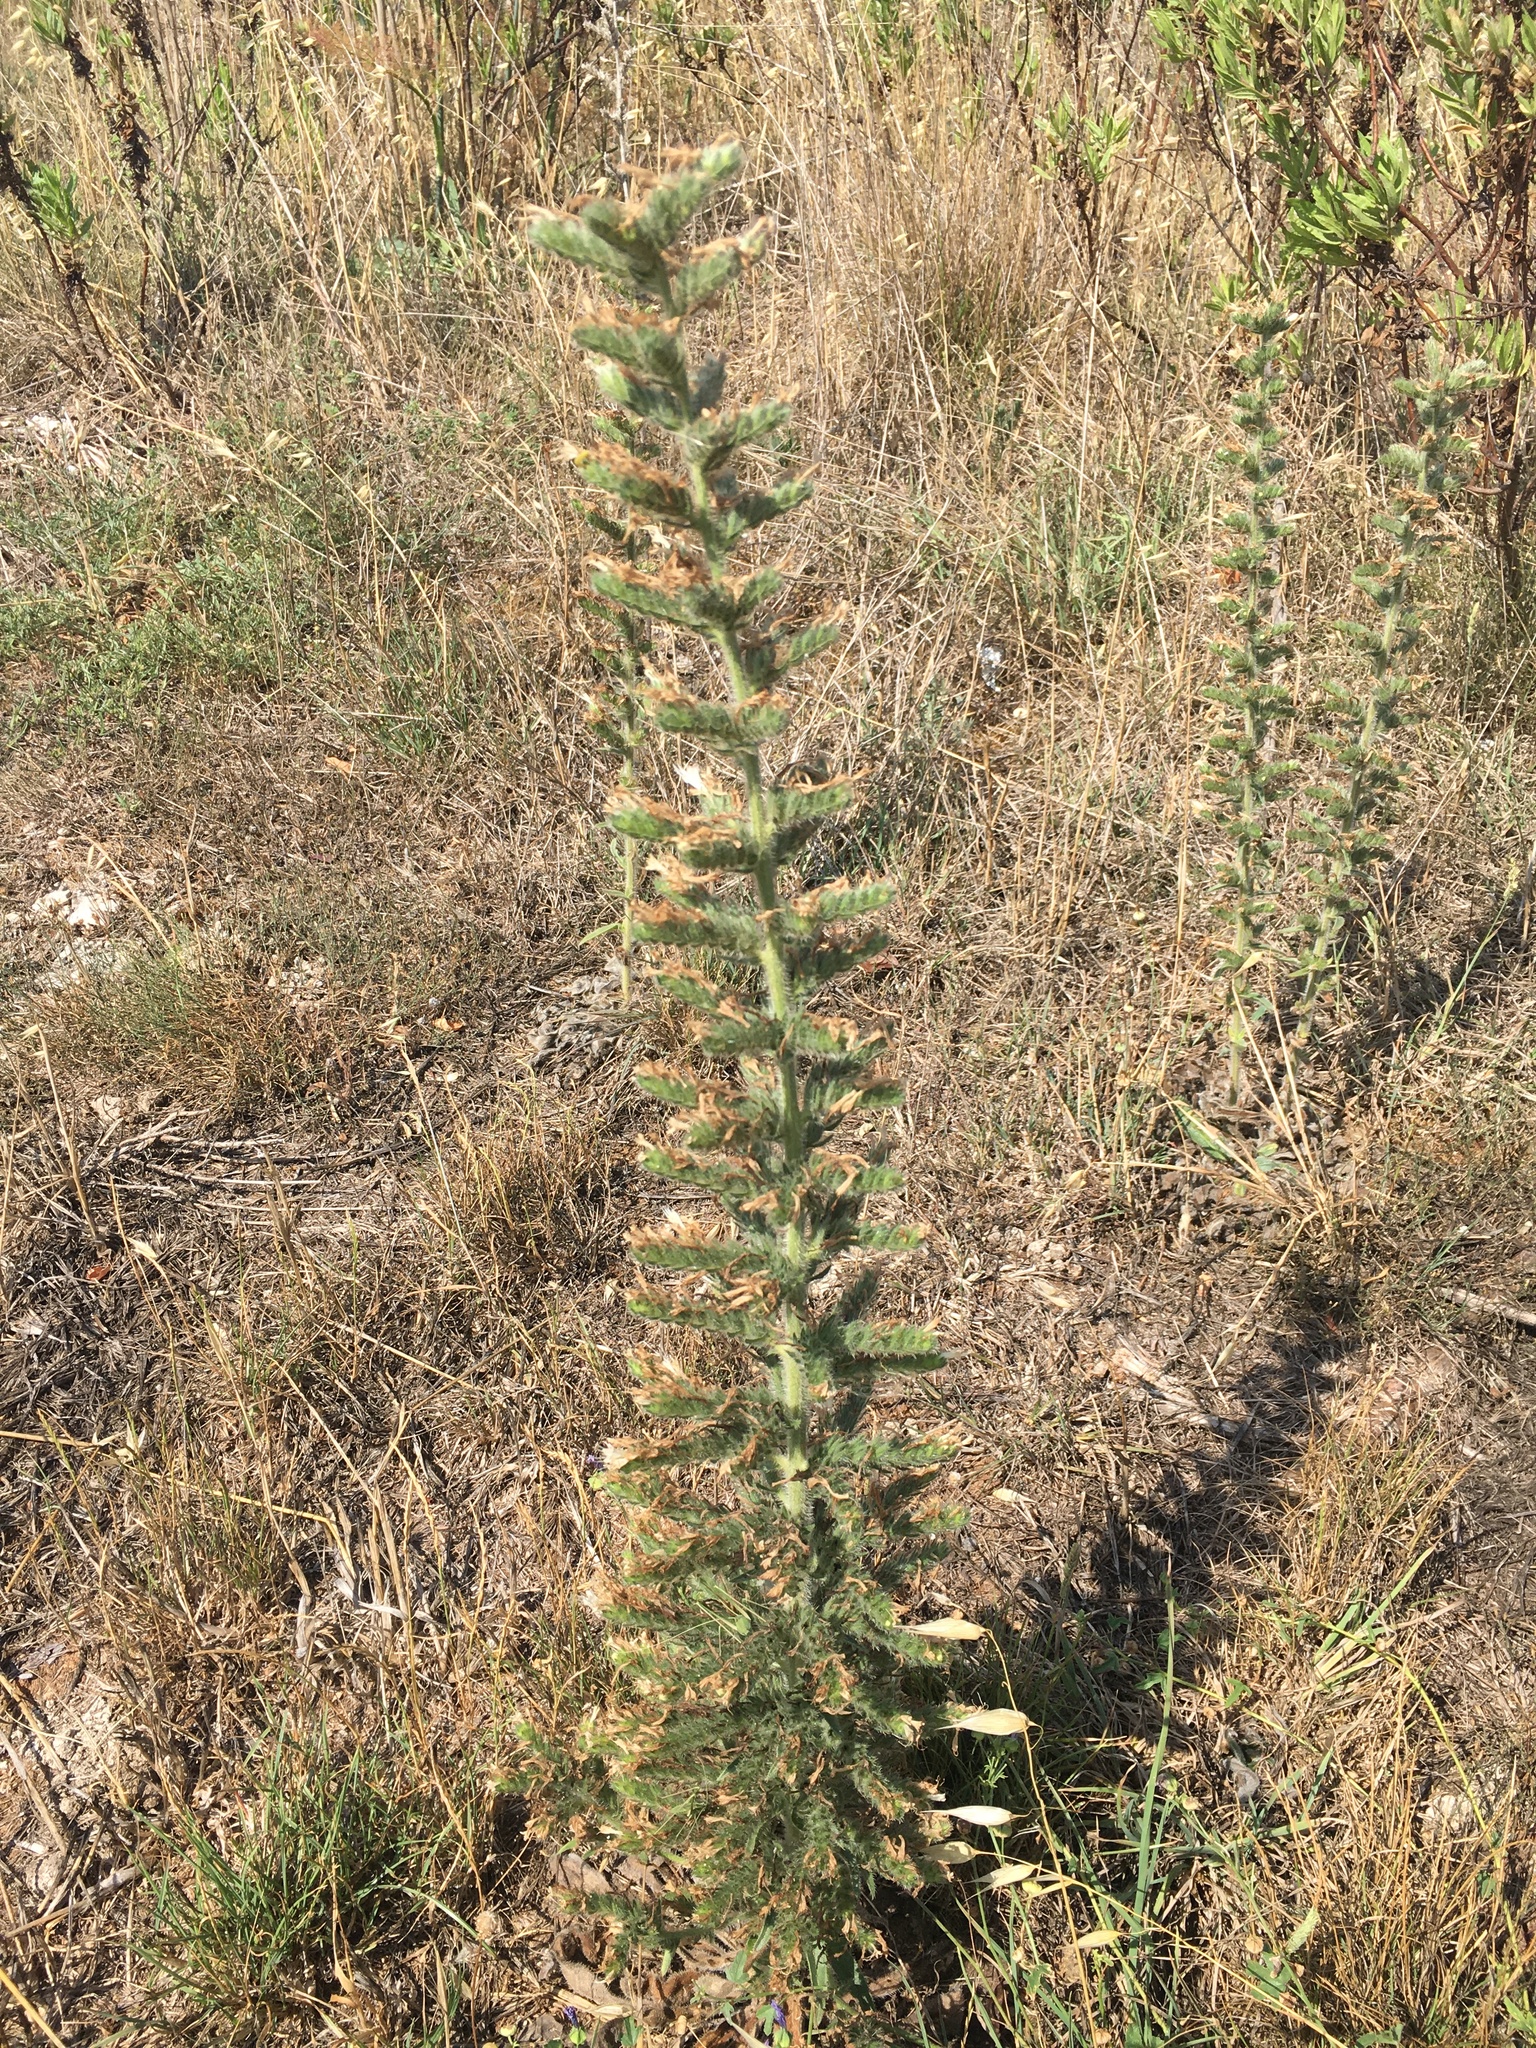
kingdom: Plantae
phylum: Tracheophyta
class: Magnoliopsida
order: Boraginales
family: Boraginaceae
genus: Echium
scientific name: Echium italicum
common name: Italian viper's bugloss
